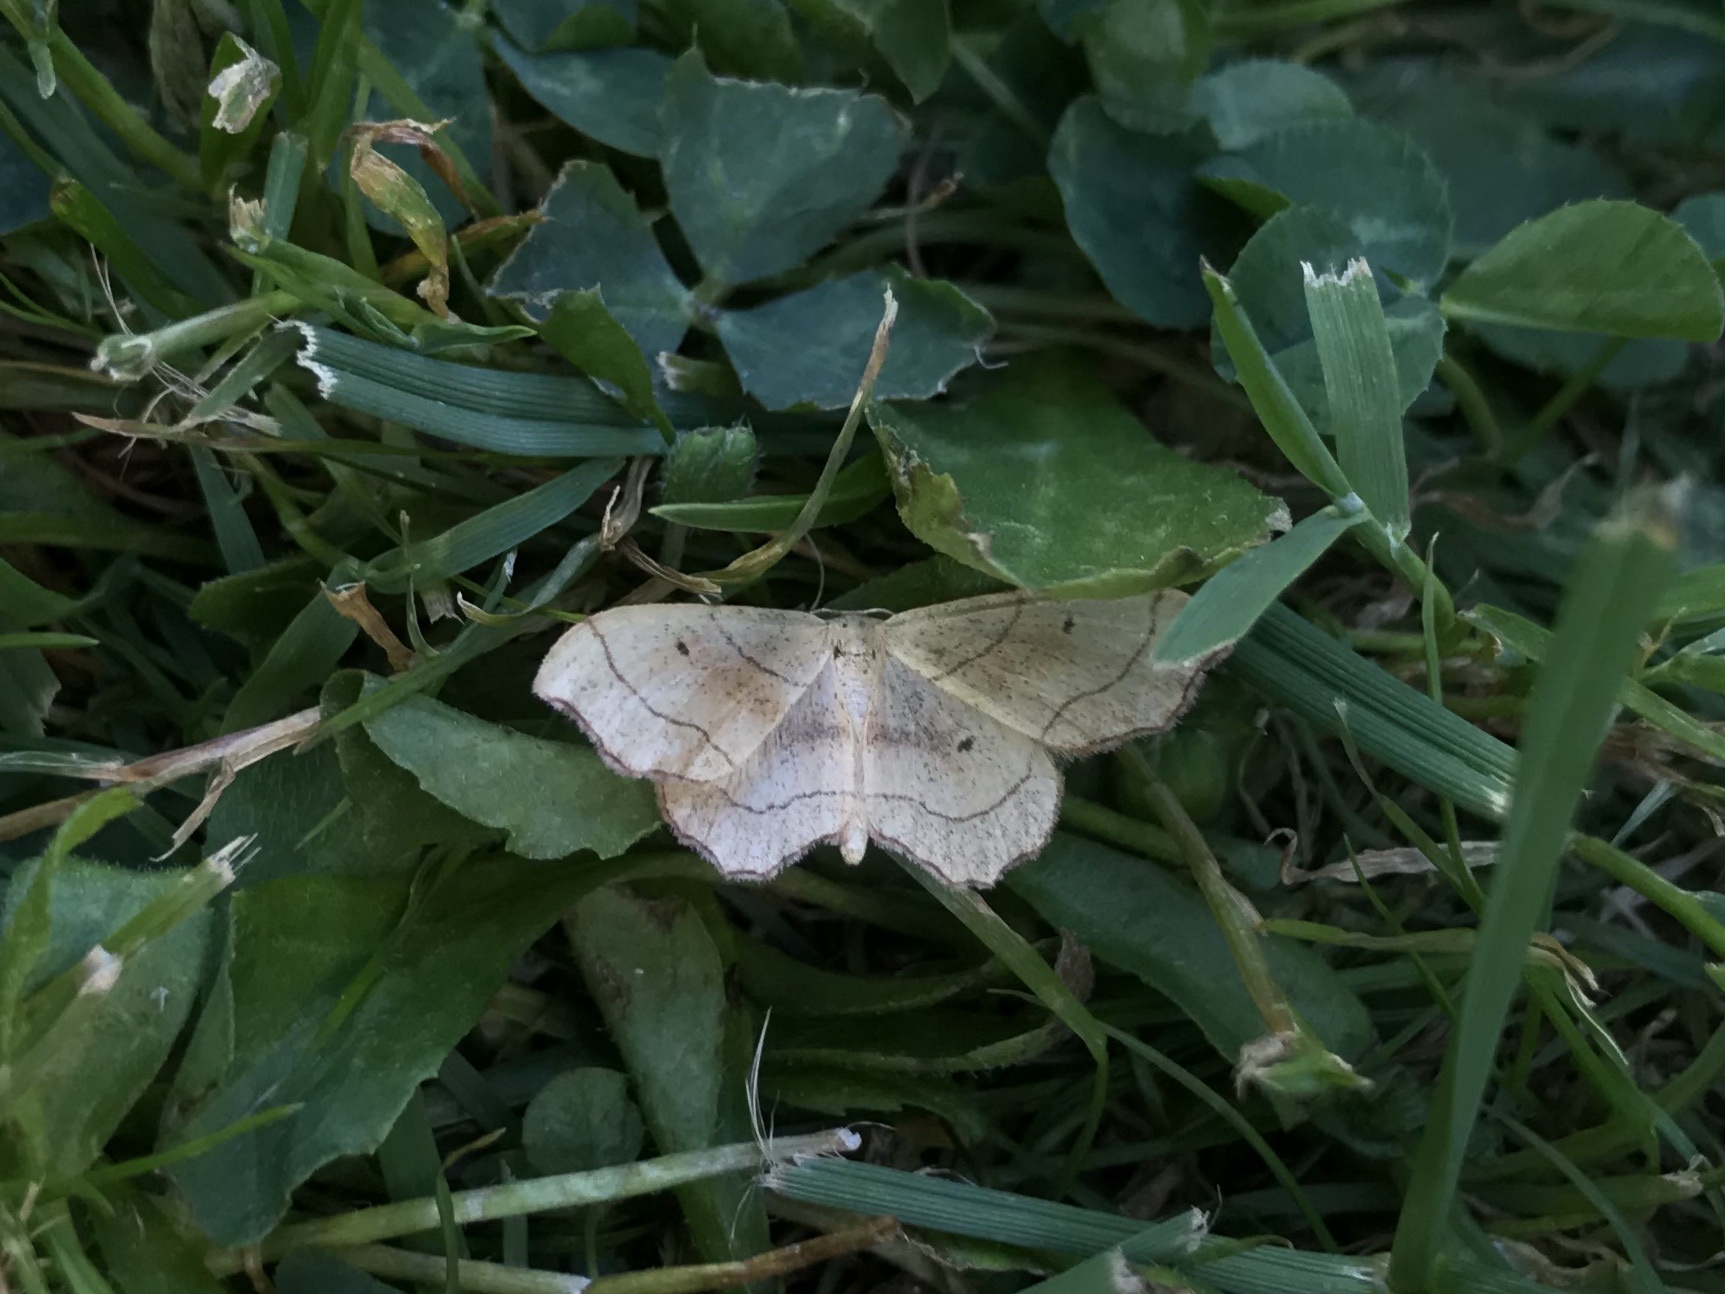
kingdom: Animalia
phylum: Arthropoda
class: Insecta
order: Lepidoptera
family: Geometridae
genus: Idaea
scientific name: Idaea emarginata
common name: Small scallop
